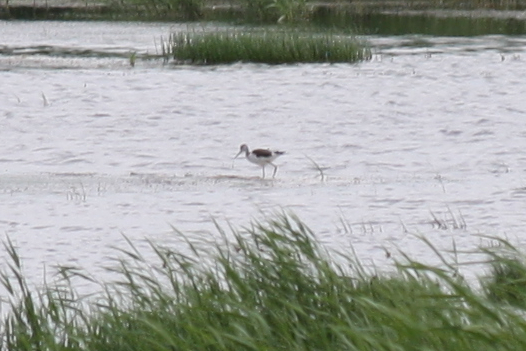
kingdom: Animalia
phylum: Chordata
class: Aves
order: Charadriiformes
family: Recurvirostridae
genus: Himantopus
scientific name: Himantopus himantopus
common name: Black-winged stilt
